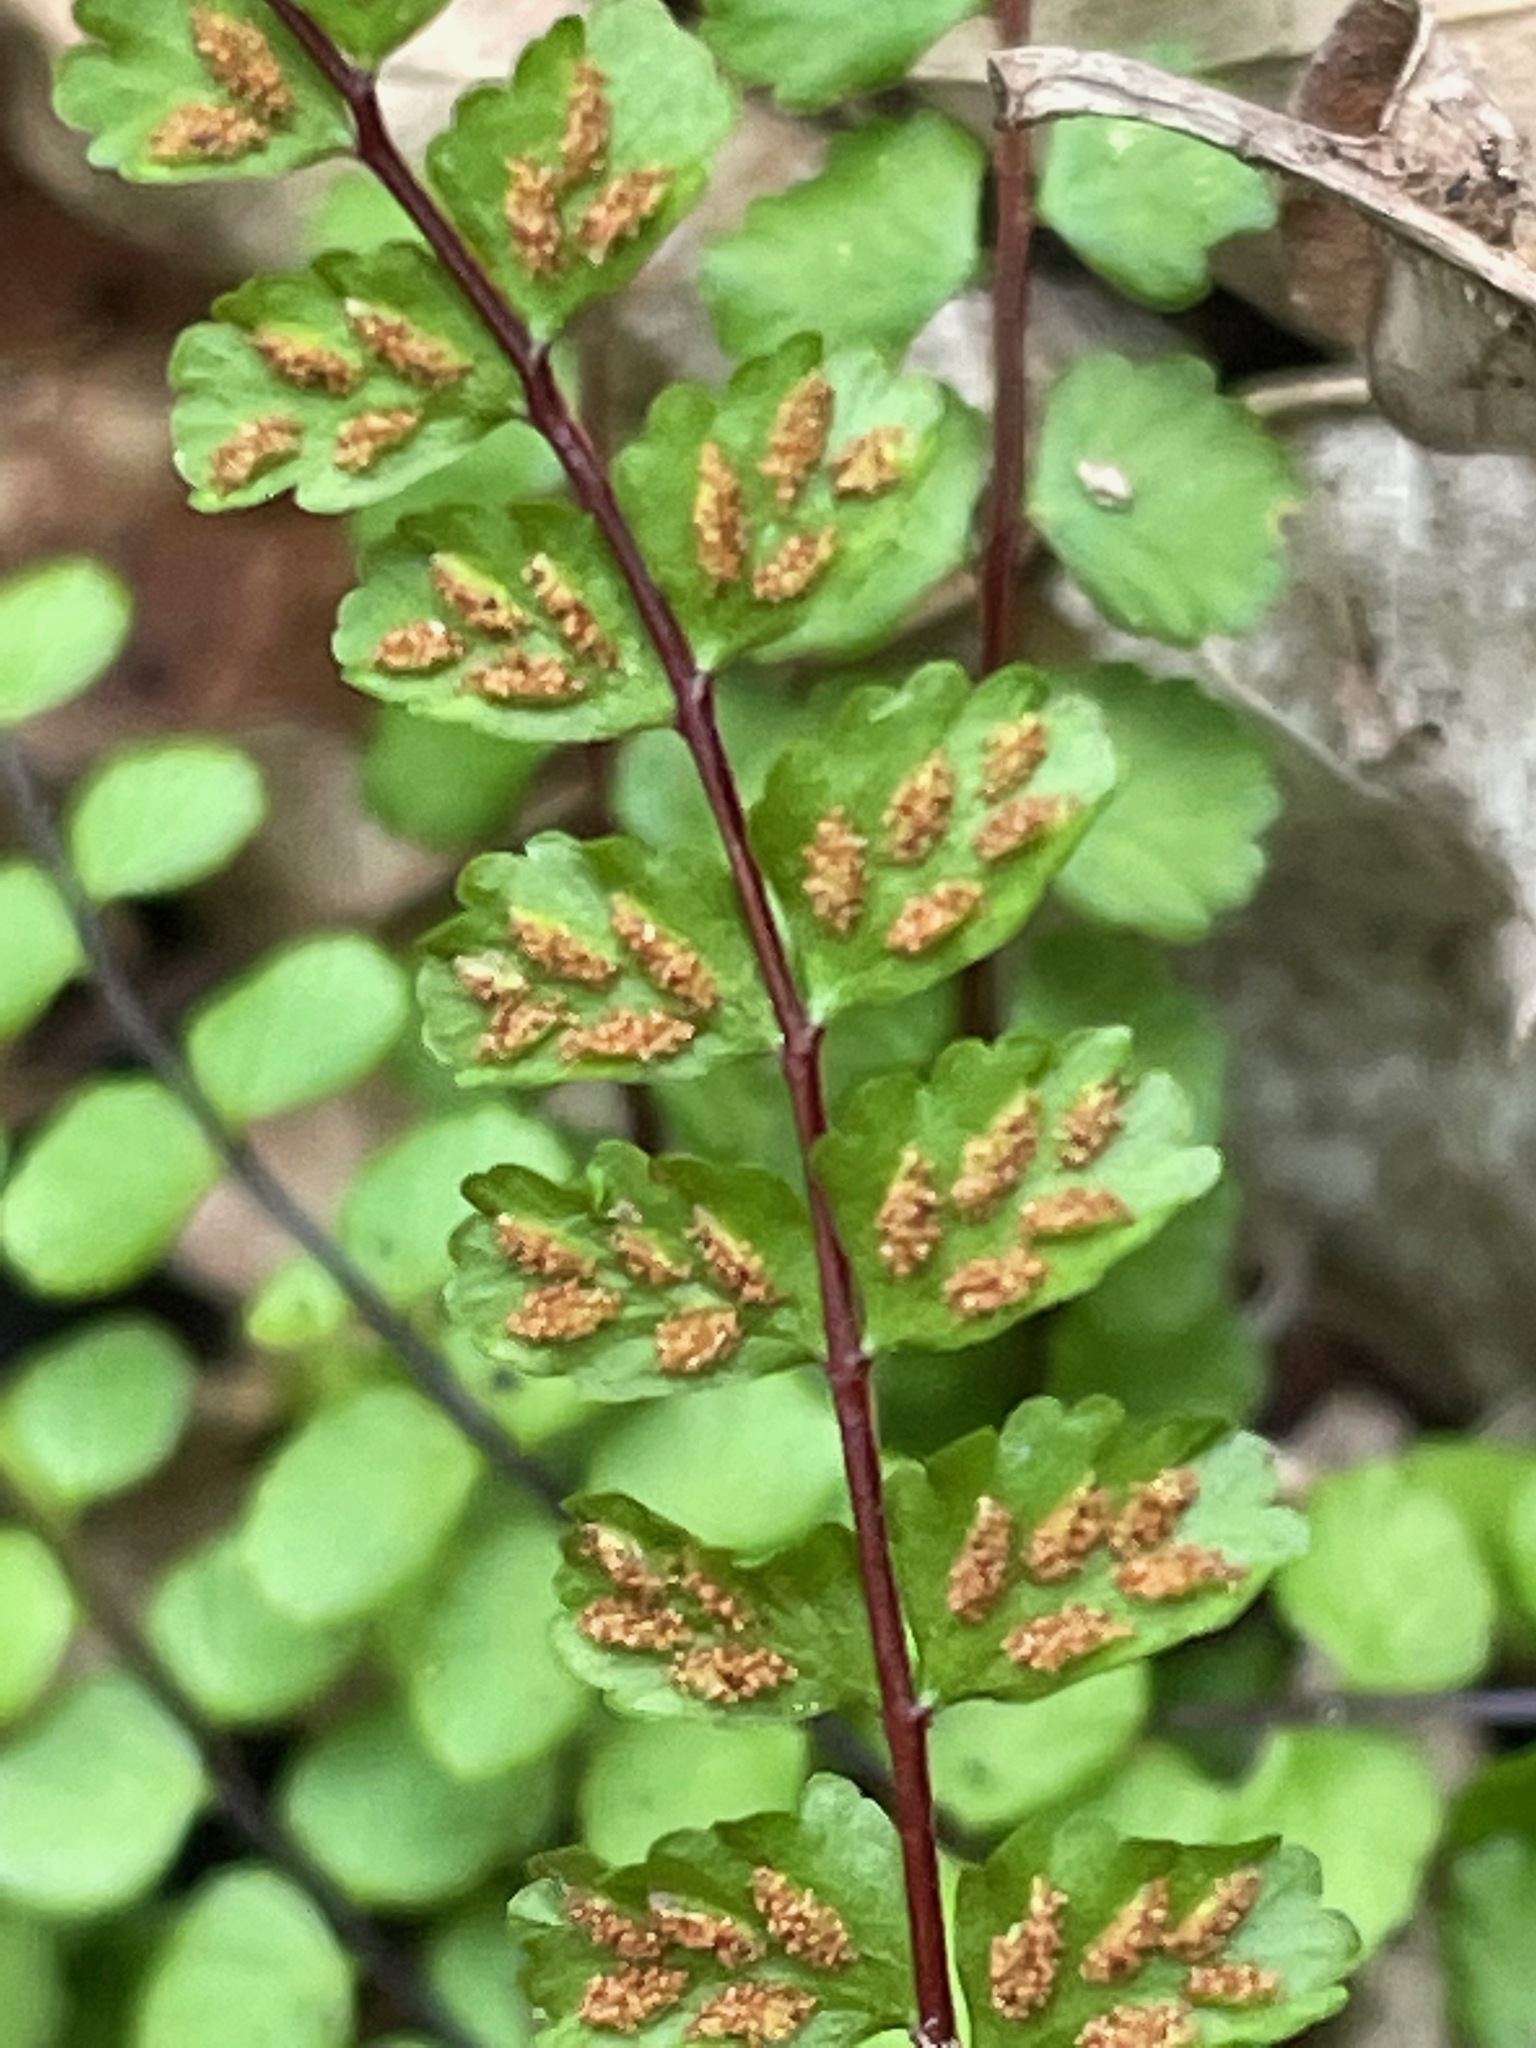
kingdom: Plantae
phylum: Tracheophyta
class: Polypodiopsida
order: Polypodiales
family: Aspleniaceae
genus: Asplenium
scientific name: Asplenium trichomanes
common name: Maidenhair spleenwort
